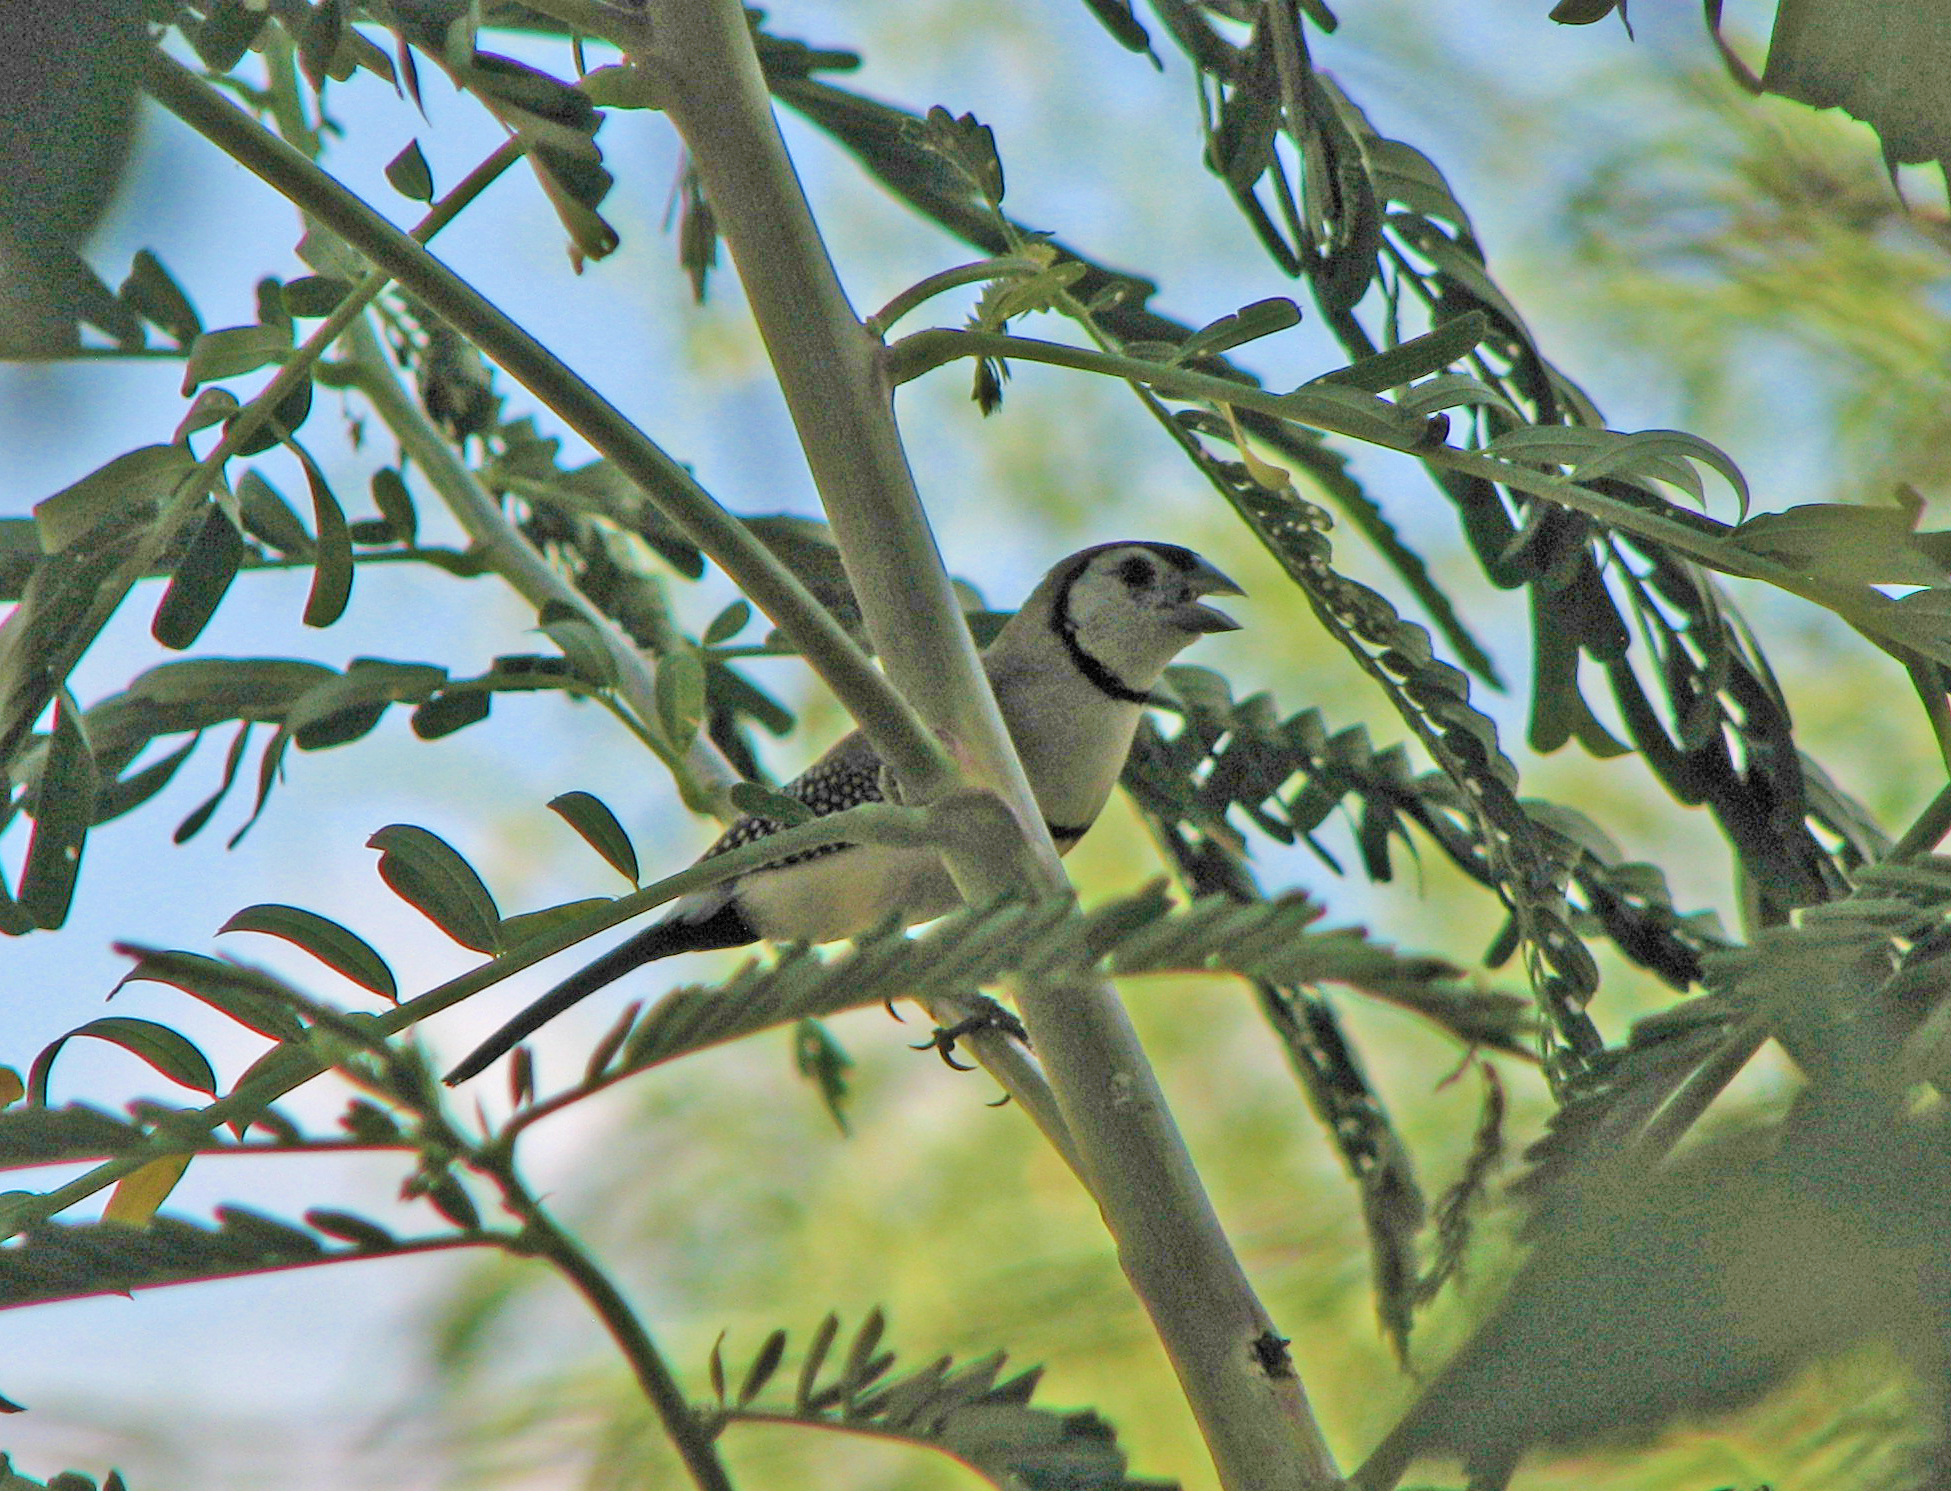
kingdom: Animalia
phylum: Chordata
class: Aves
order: Passeriformes
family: Estrildidae
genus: Taeniopygia
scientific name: Taeniopygia bichenovii
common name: Double-barred finch
